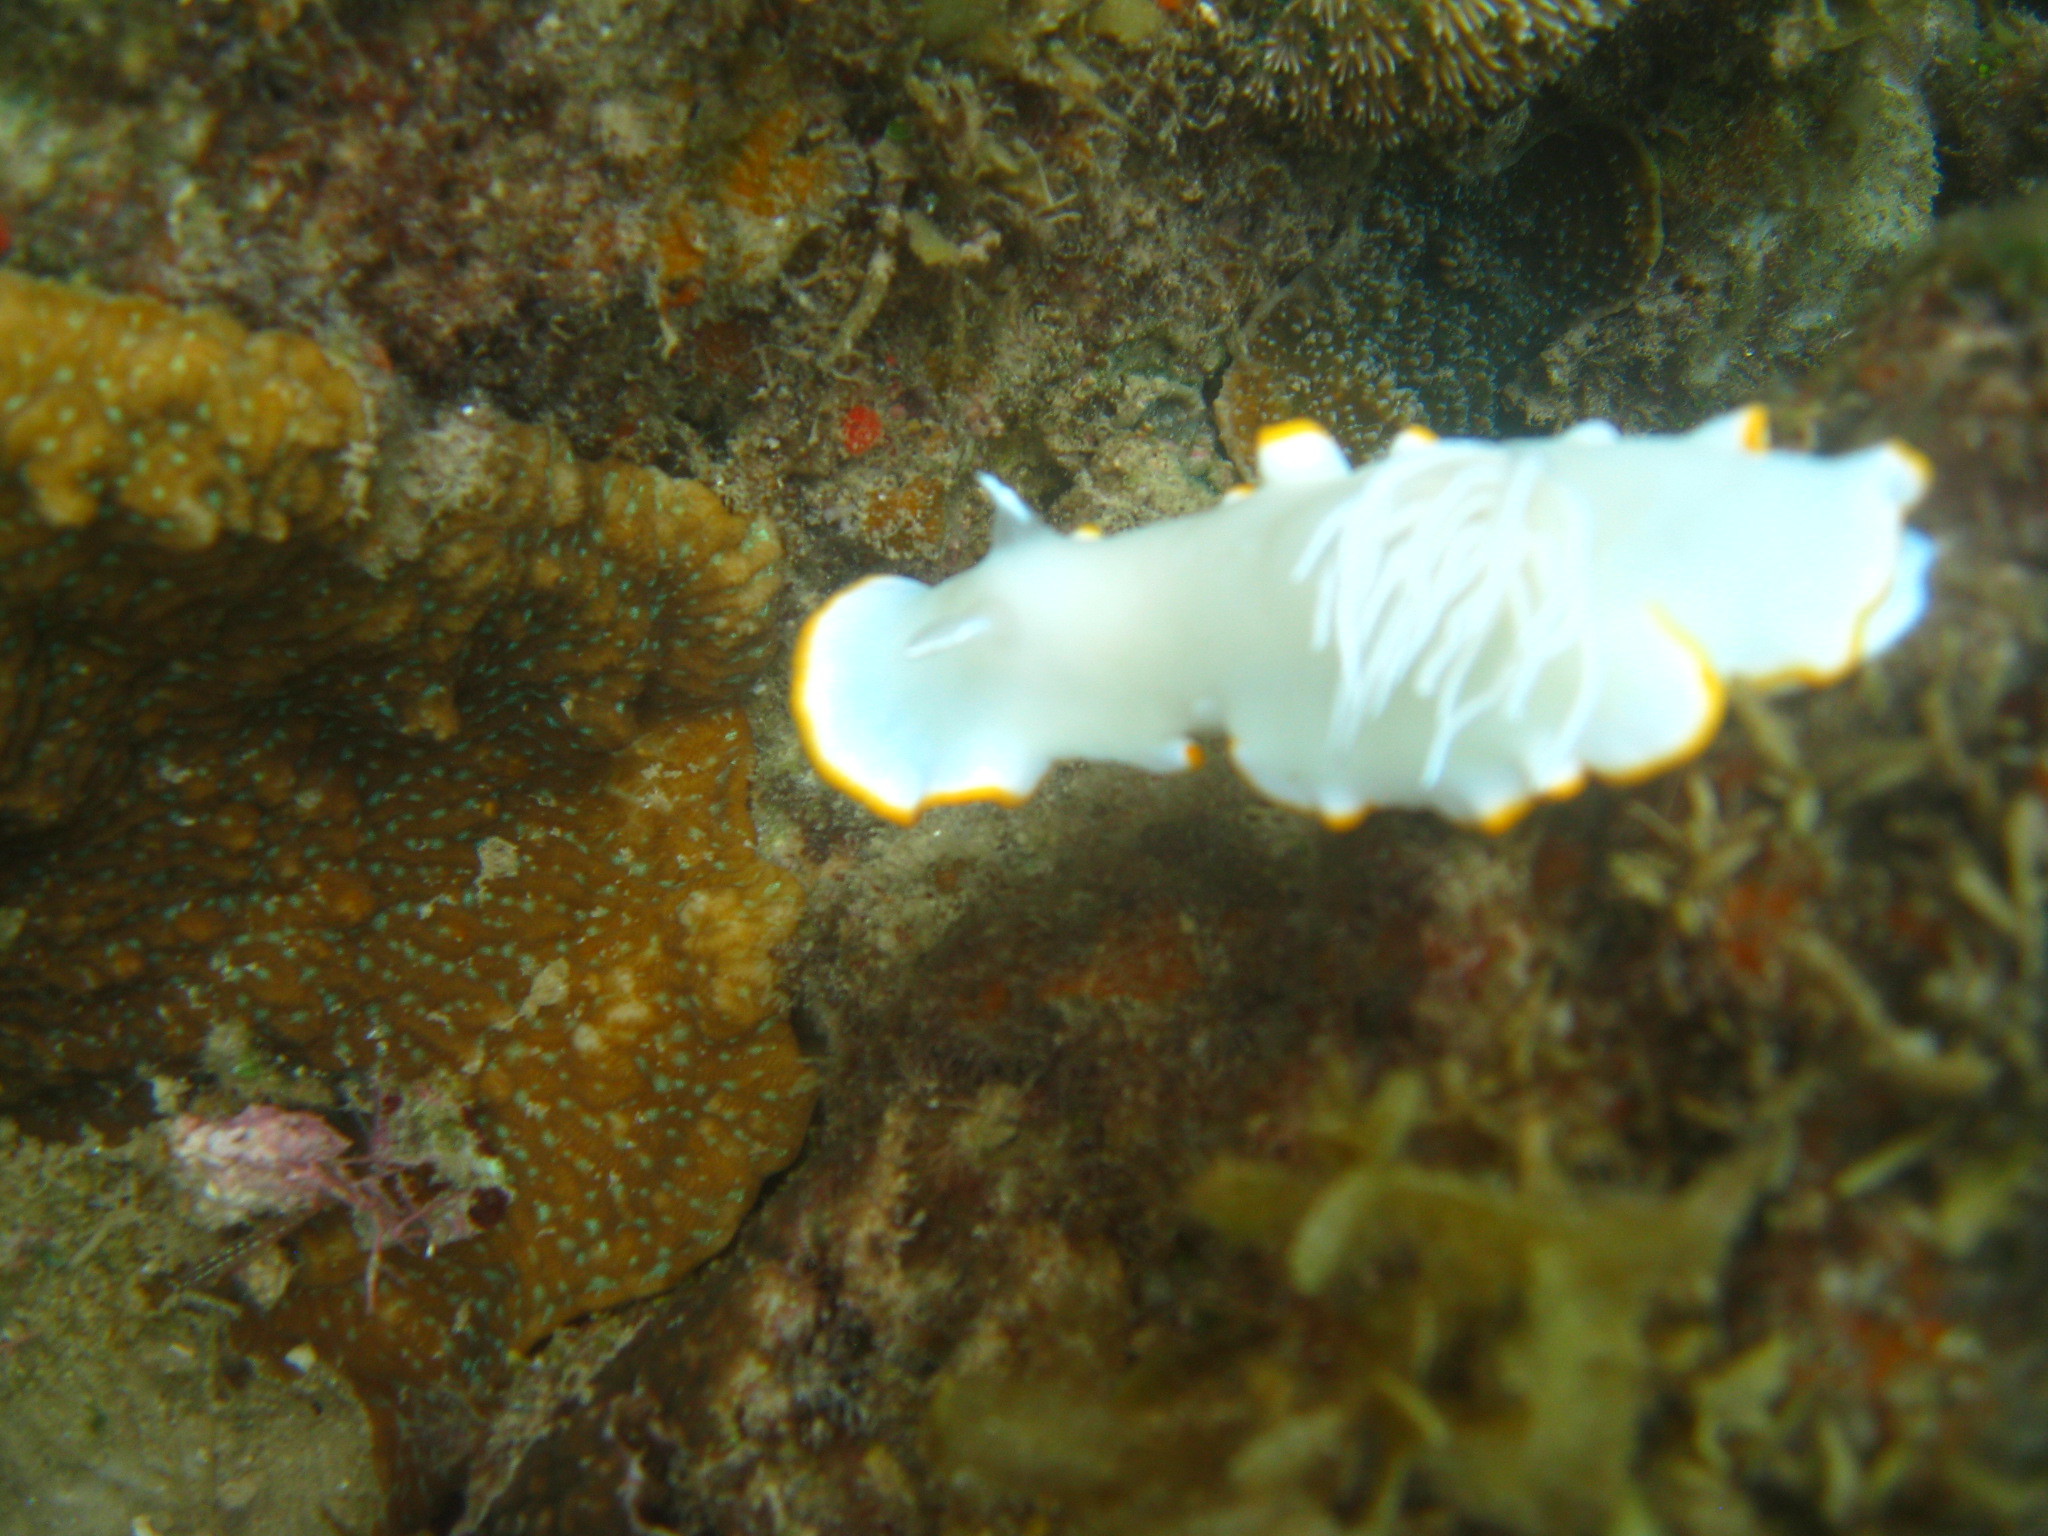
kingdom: Animalia
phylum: Mollusca
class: Gastropoda
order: Nudibranchia
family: Chromodorididae
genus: Ardeadoris
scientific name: Ardeadoris egretta
